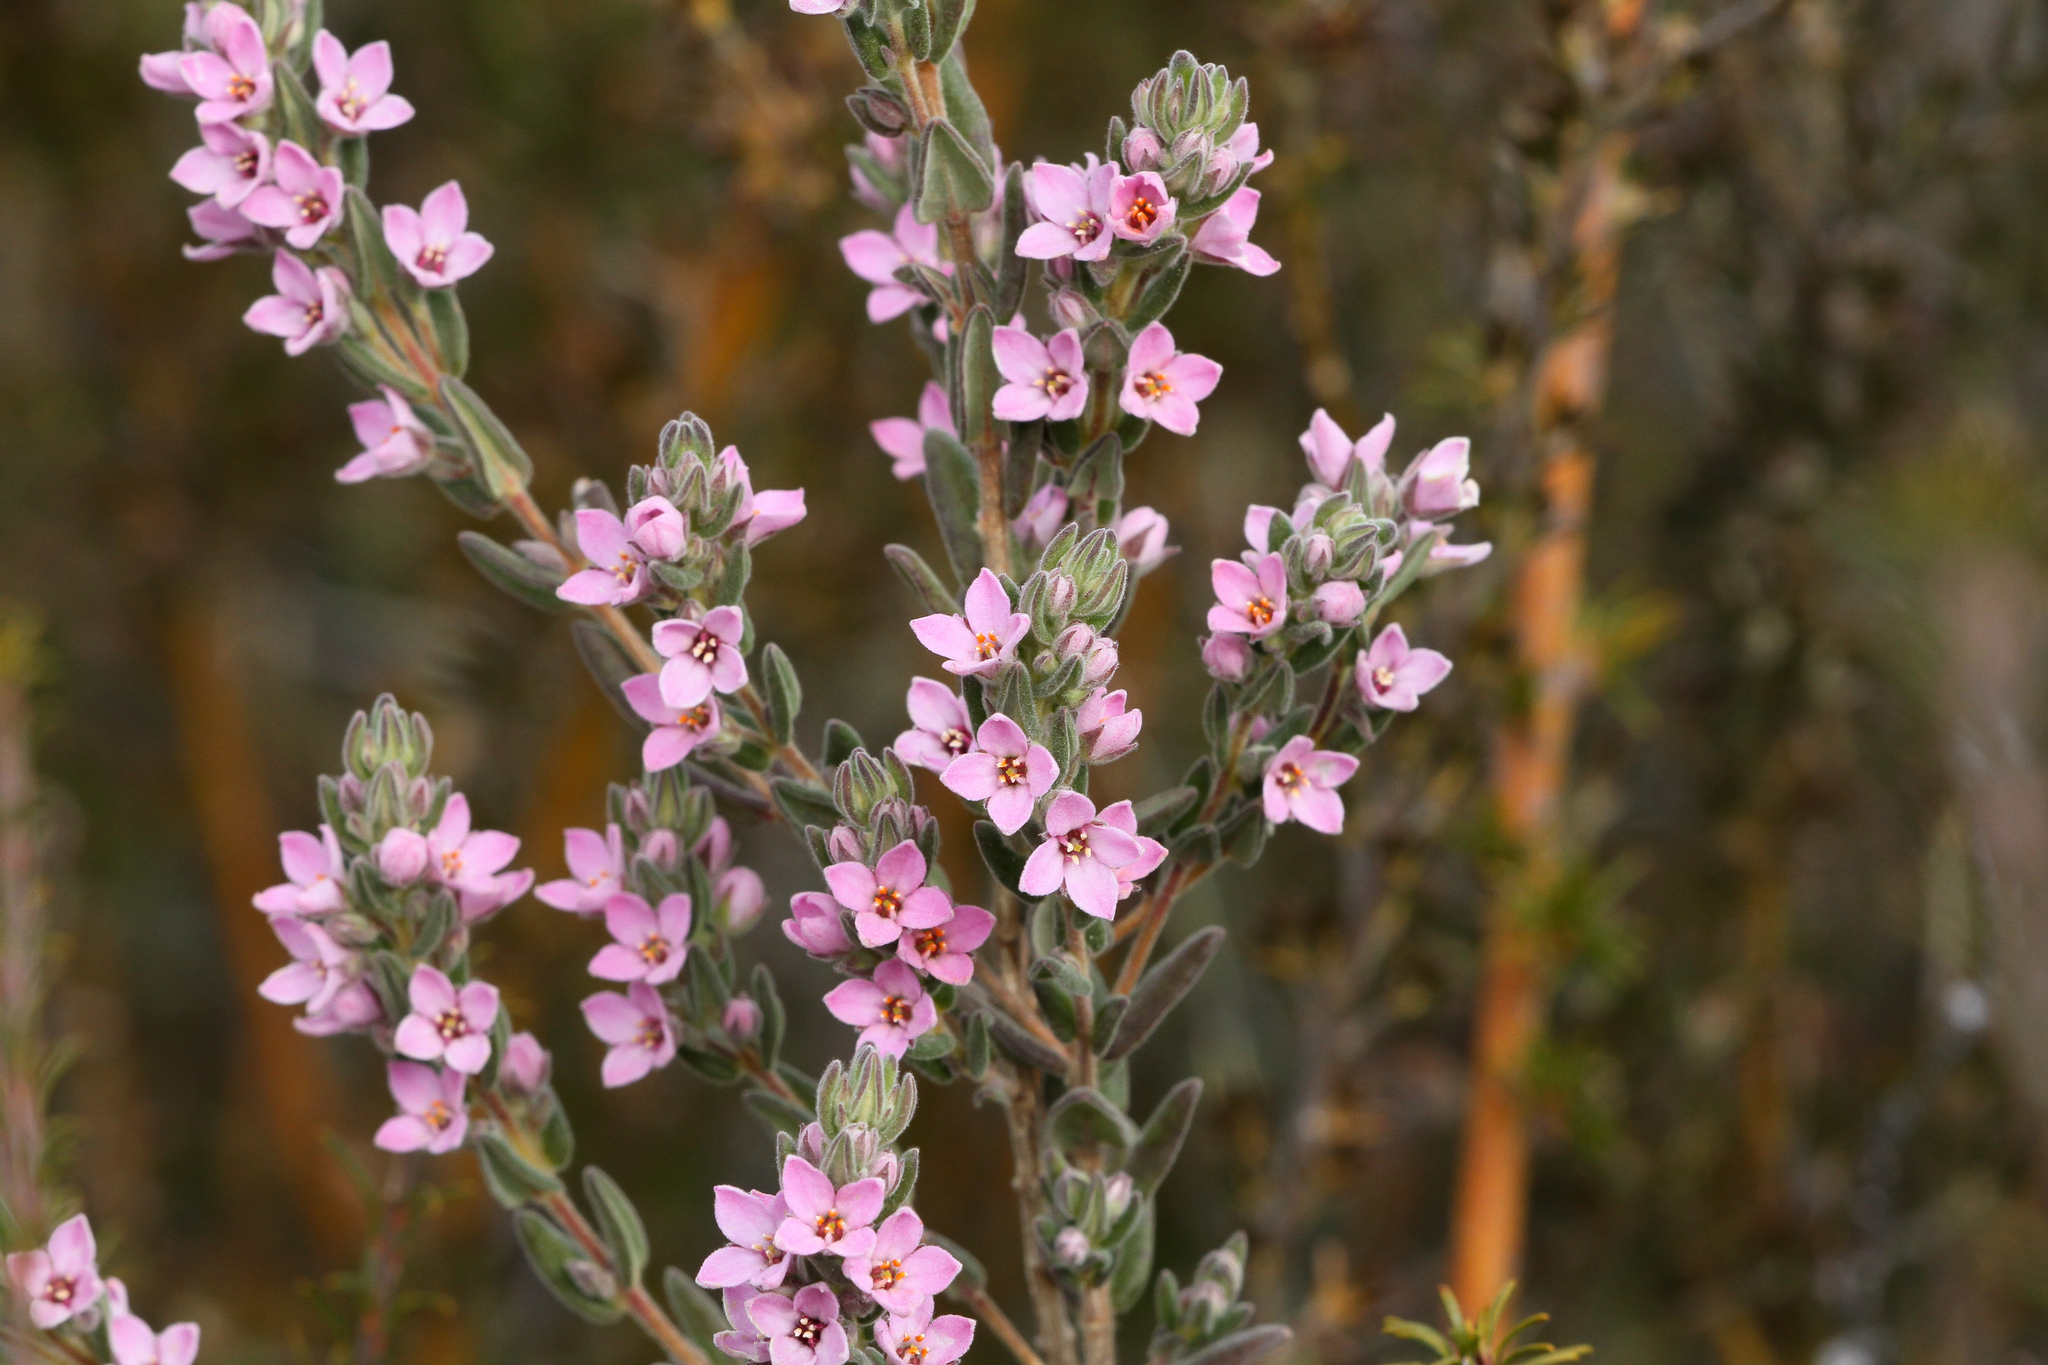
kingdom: Plantae
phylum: Tracheophyta
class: Magnoliopsida
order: Sapindales
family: Rutaceae
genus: Zieria
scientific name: Zieria veronicea
